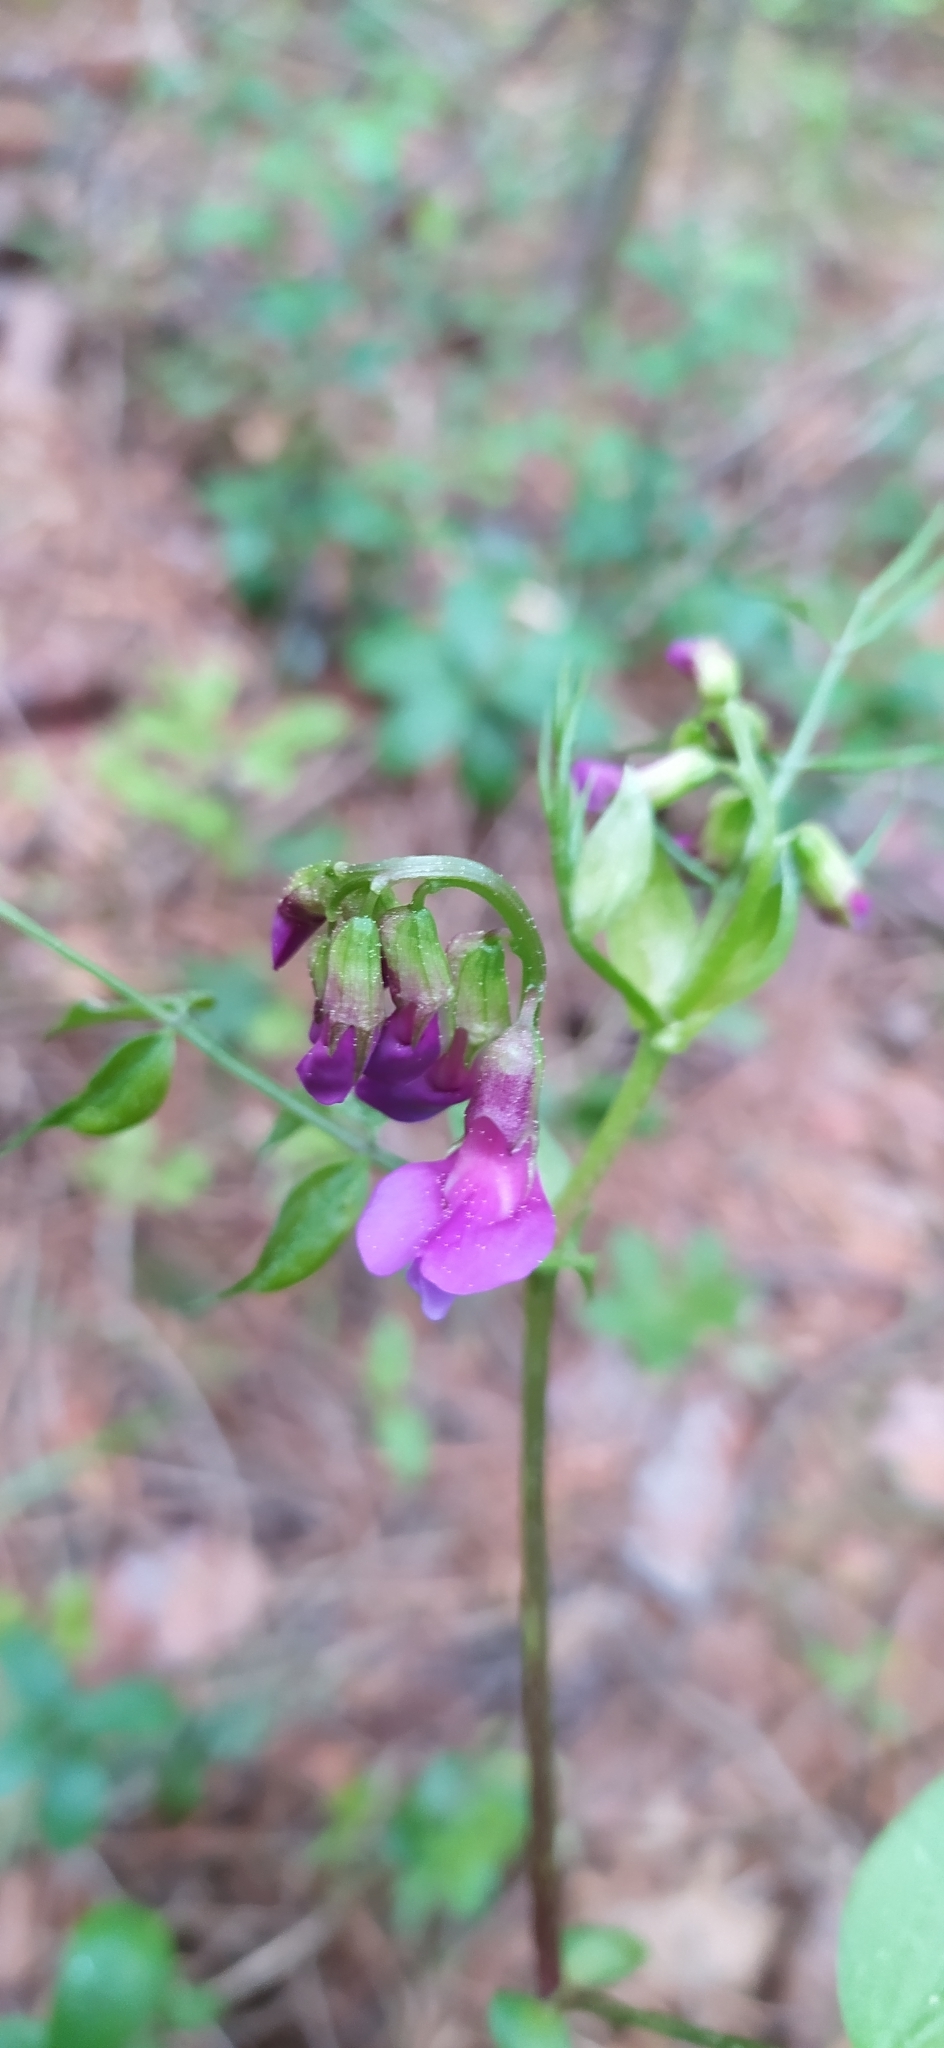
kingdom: Plantae
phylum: Tracheophyta
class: Magnoliopsida
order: Fabales
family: Fabaceae
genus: Lathyrus
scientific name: Lathyrus vernus
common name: Spring pea
